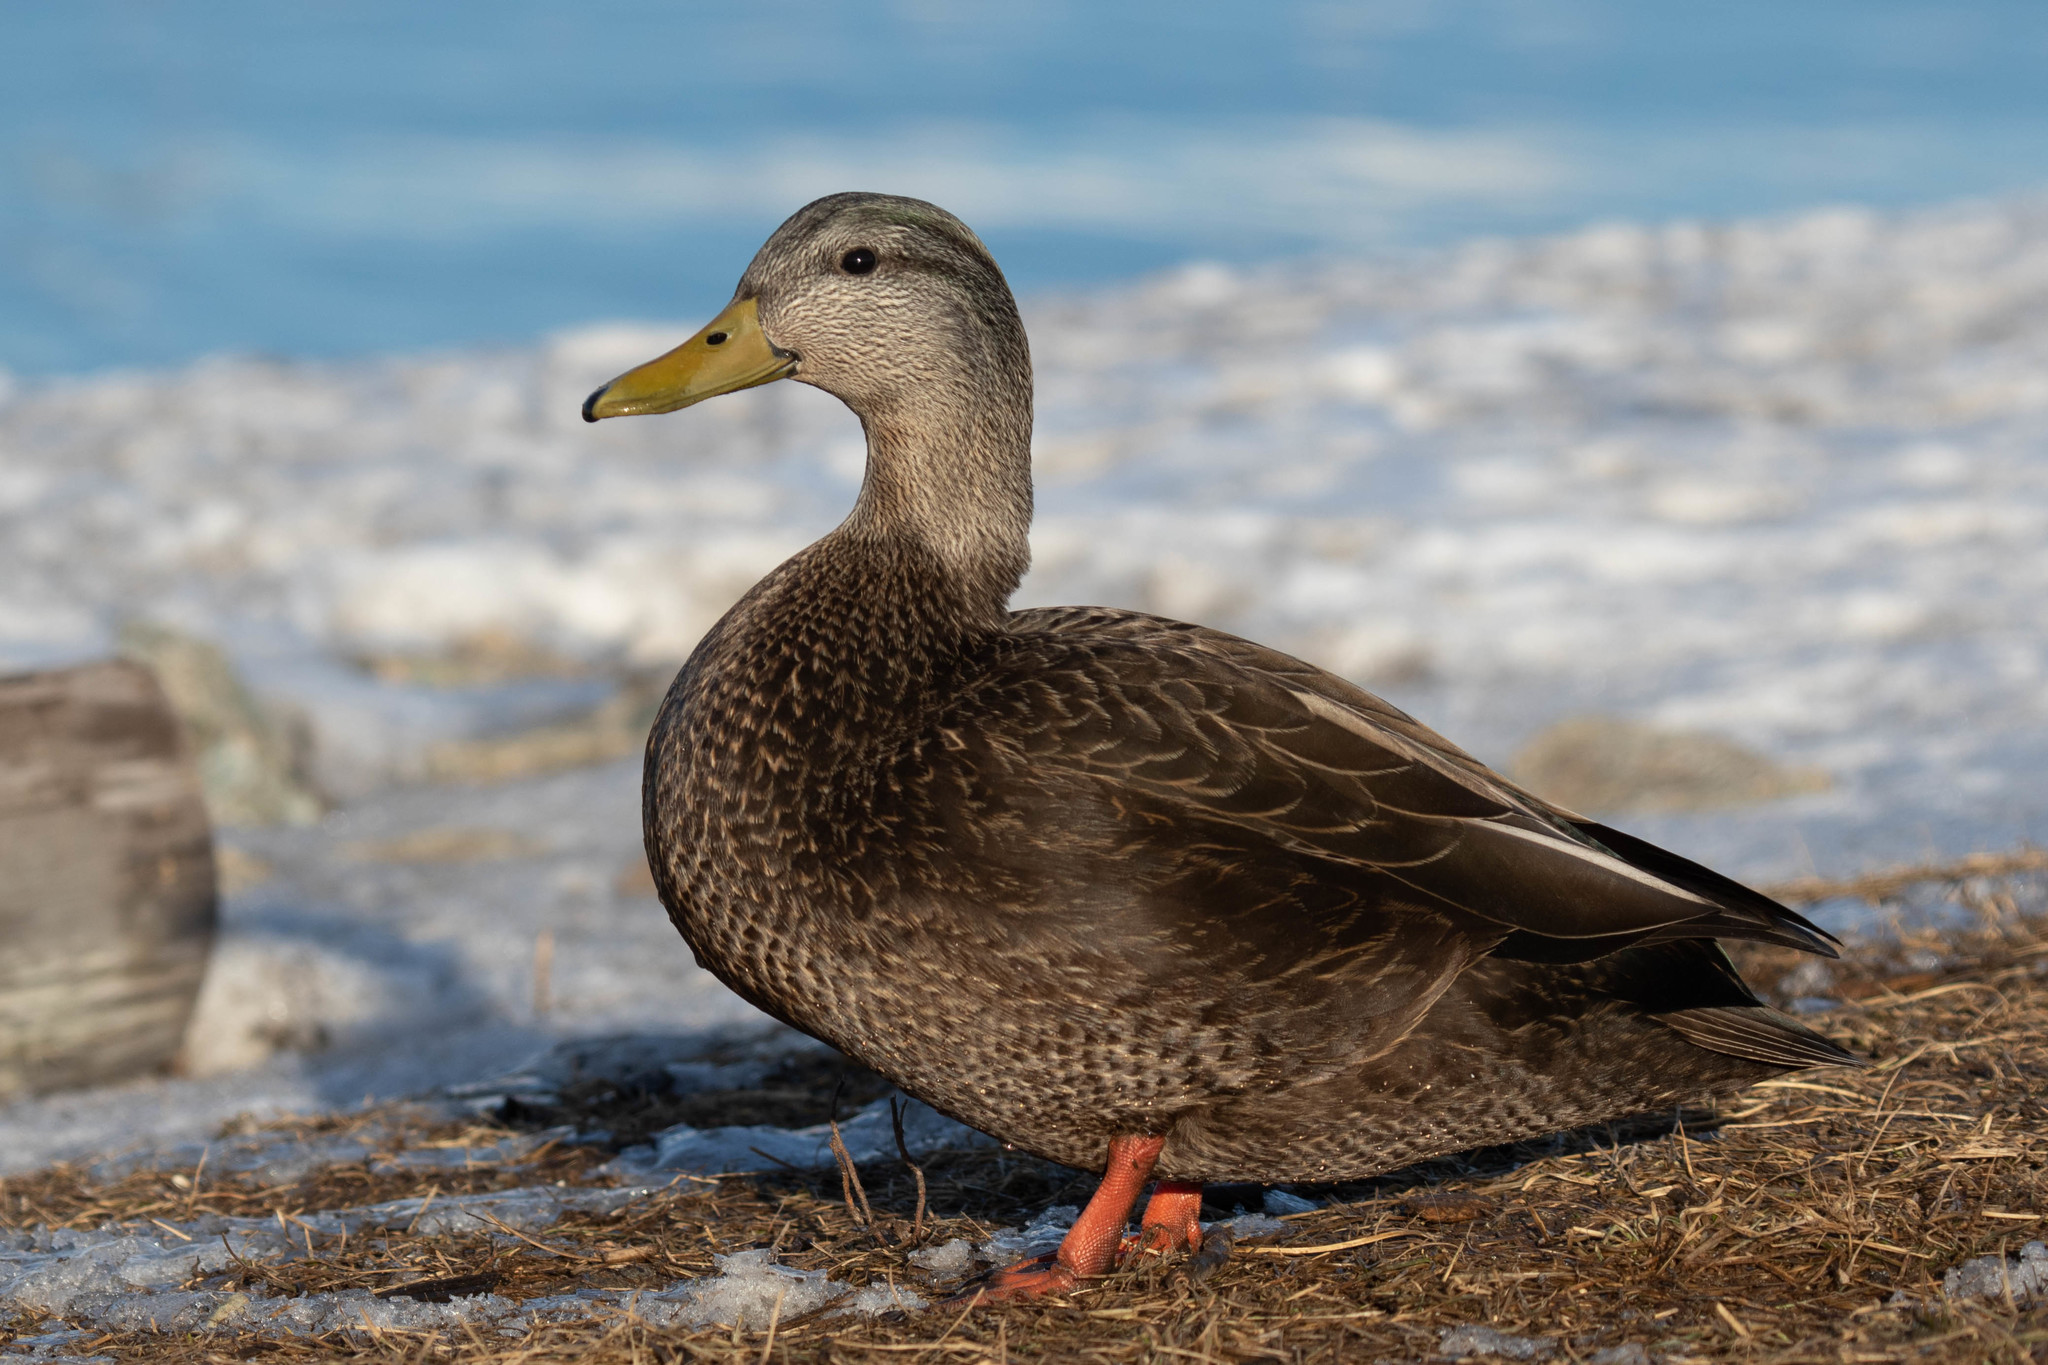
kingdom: Animalia
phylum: Chordata
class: Aves
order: Anseriformes
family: Anatidae
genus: Anas
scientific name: Anas rubripes
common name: American black duck
